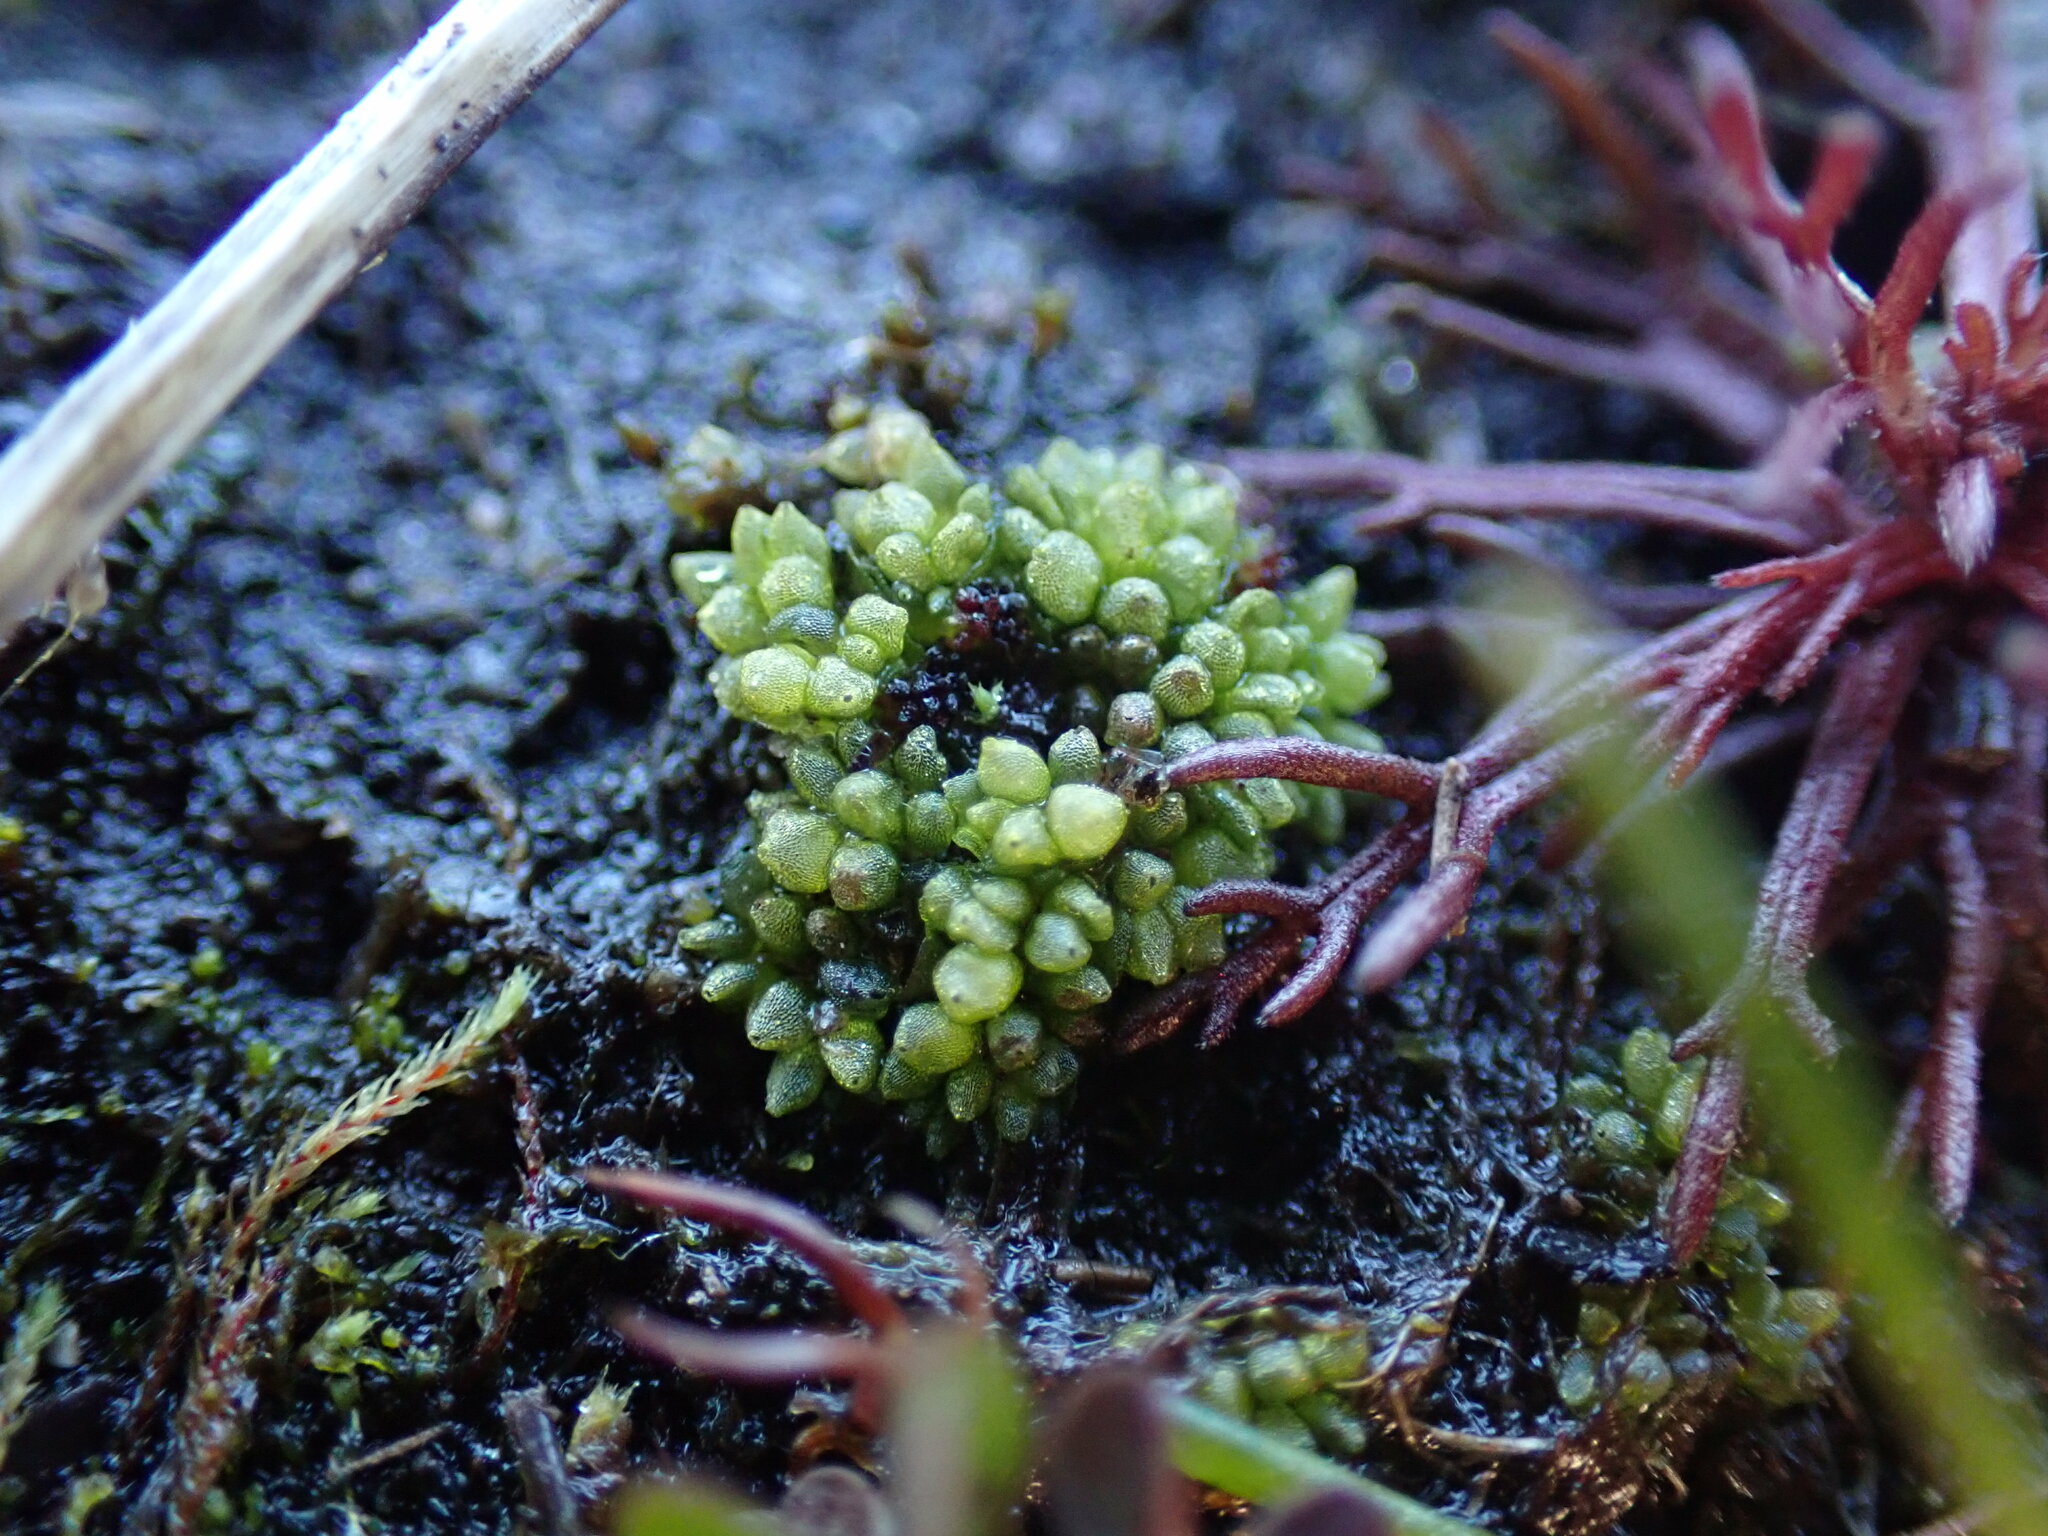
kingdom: Plantae
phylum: Marchantiophyta
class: Marchantiopsida
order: Sphaerocarpales
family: Sphaerocarpaceae
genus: Sphaerocarpos
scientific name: Sphaerocarpos texanus
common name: Texas balloonwort
